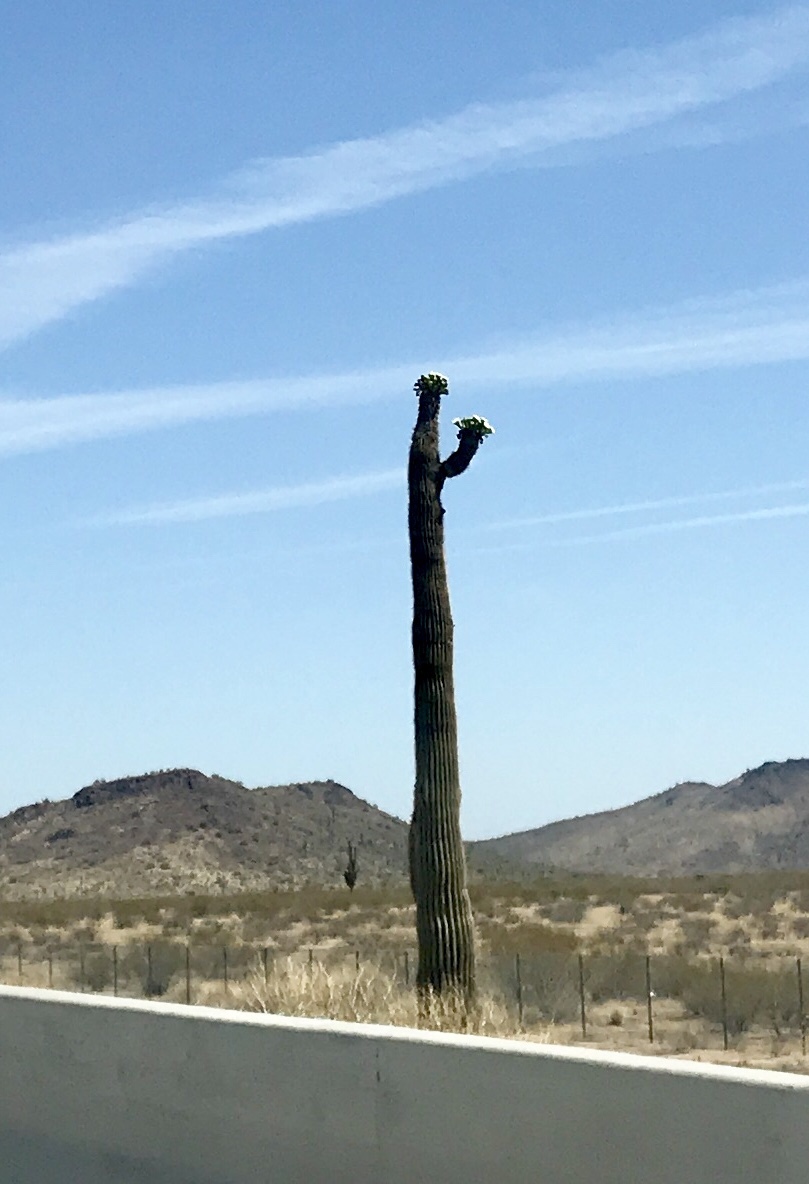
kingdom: Plantae
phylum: Tracheophyta
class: Magnoliopsida
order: Caryophyllales
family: Cactaceae
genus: Carnegiea
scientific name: Carnegiea gigantea
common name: Saguaro
